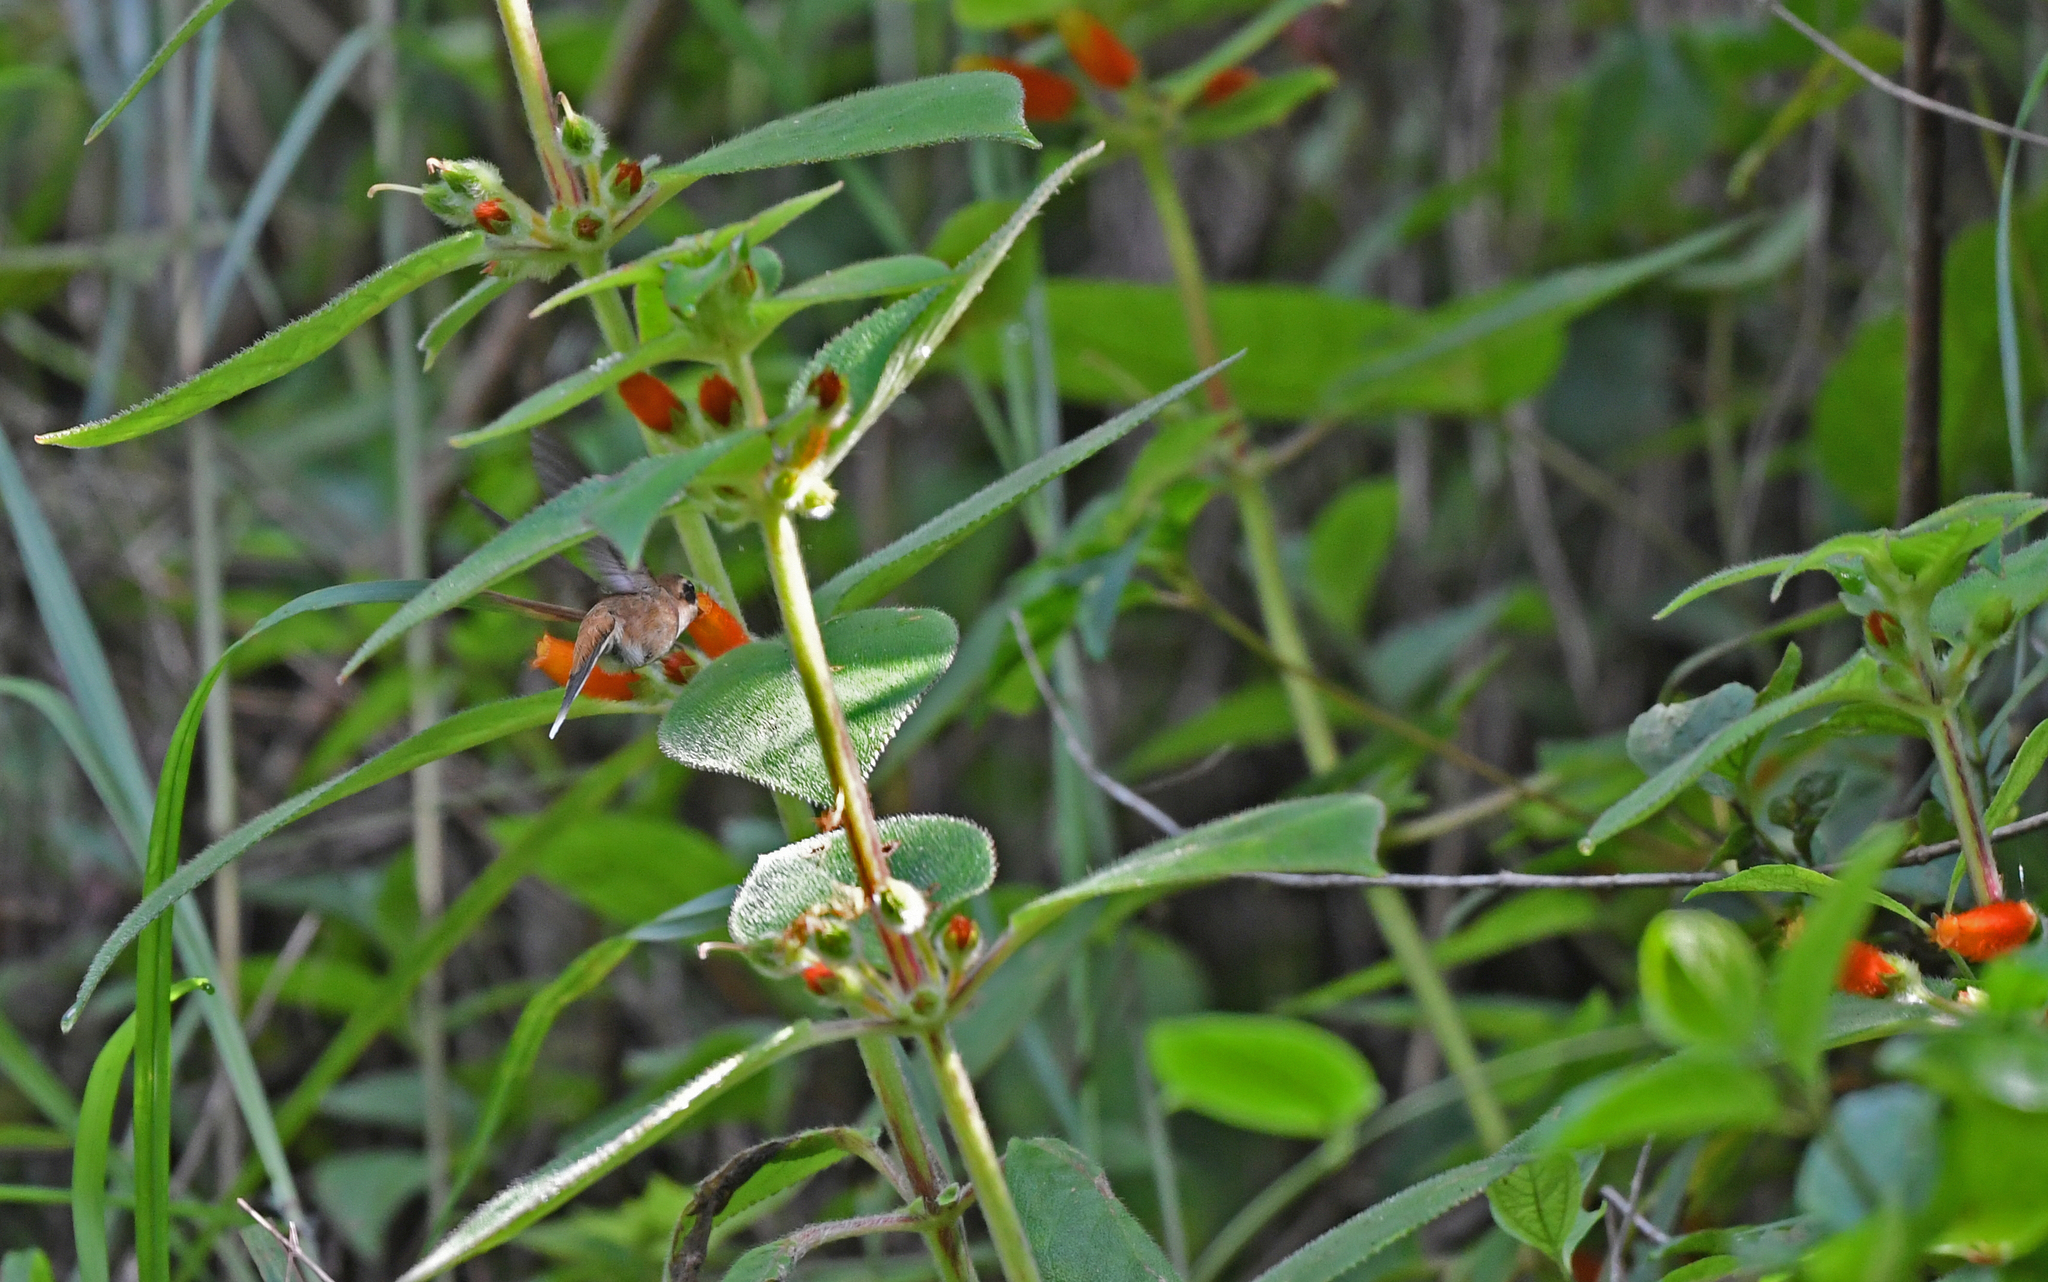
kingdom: Animalia
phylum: Chordata
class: Aves
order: Apodiformes
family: Trochilidae
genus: Phaethornis
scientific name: Phaethornis striigularis
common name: Stripe-throated hermit
